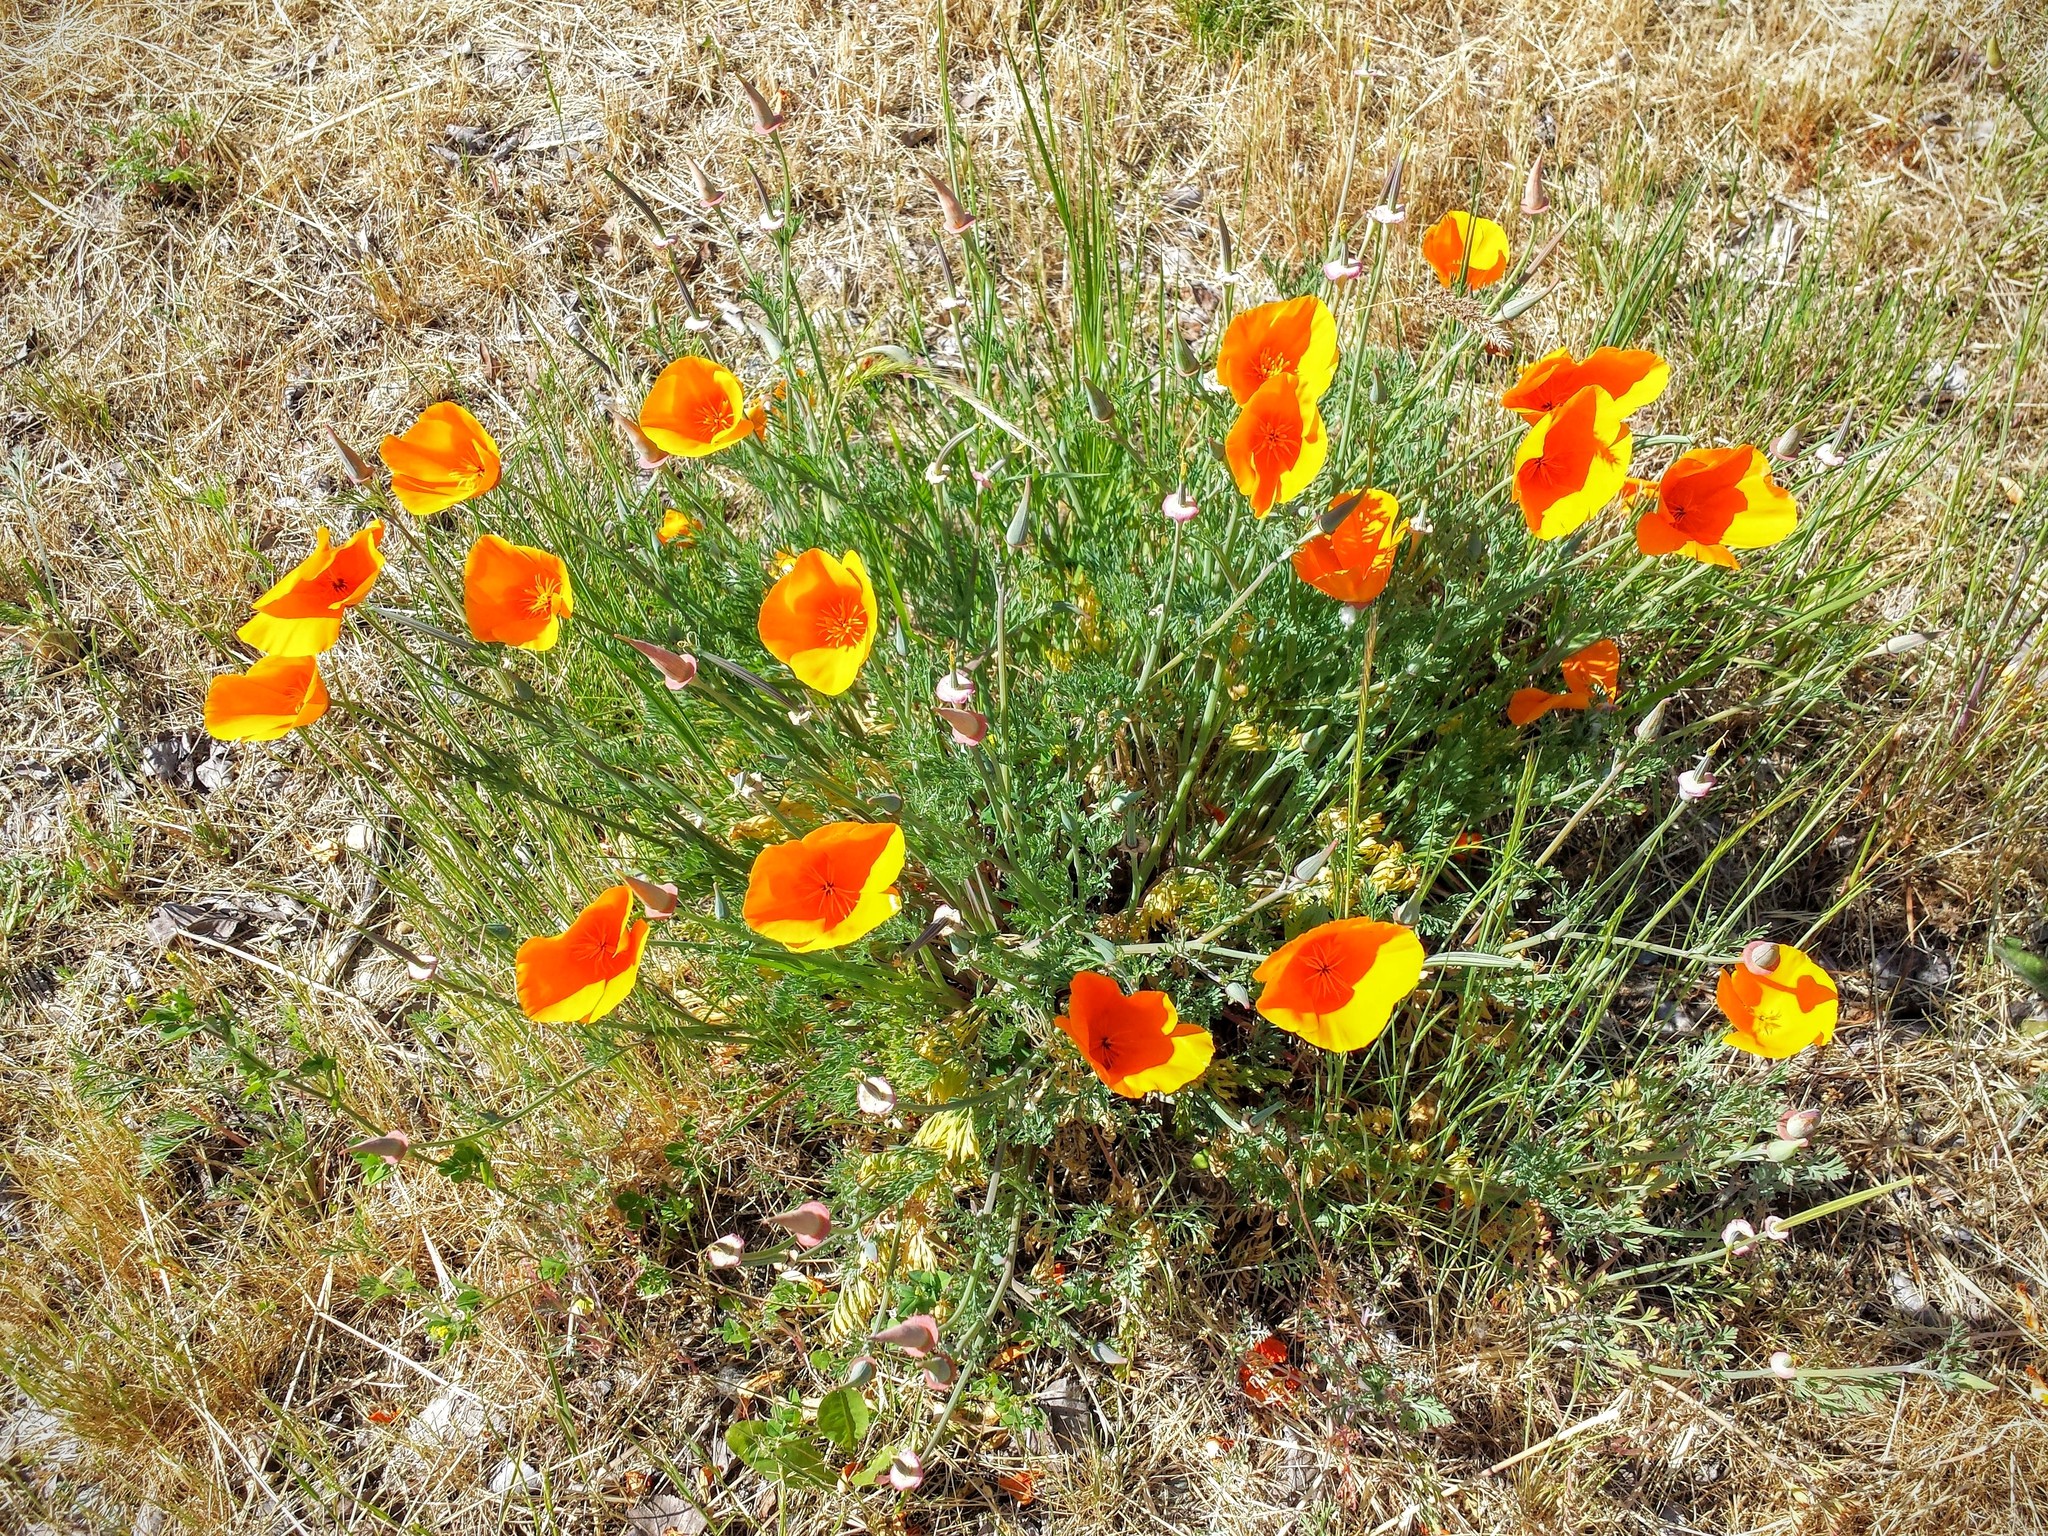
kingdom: Plantae
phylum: Tracheophyta
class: Magnoliopsida
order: Ranunculales
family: Papaveraceae
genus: Eschscholzia
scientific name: Eschscholzia californica
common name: California poppy
